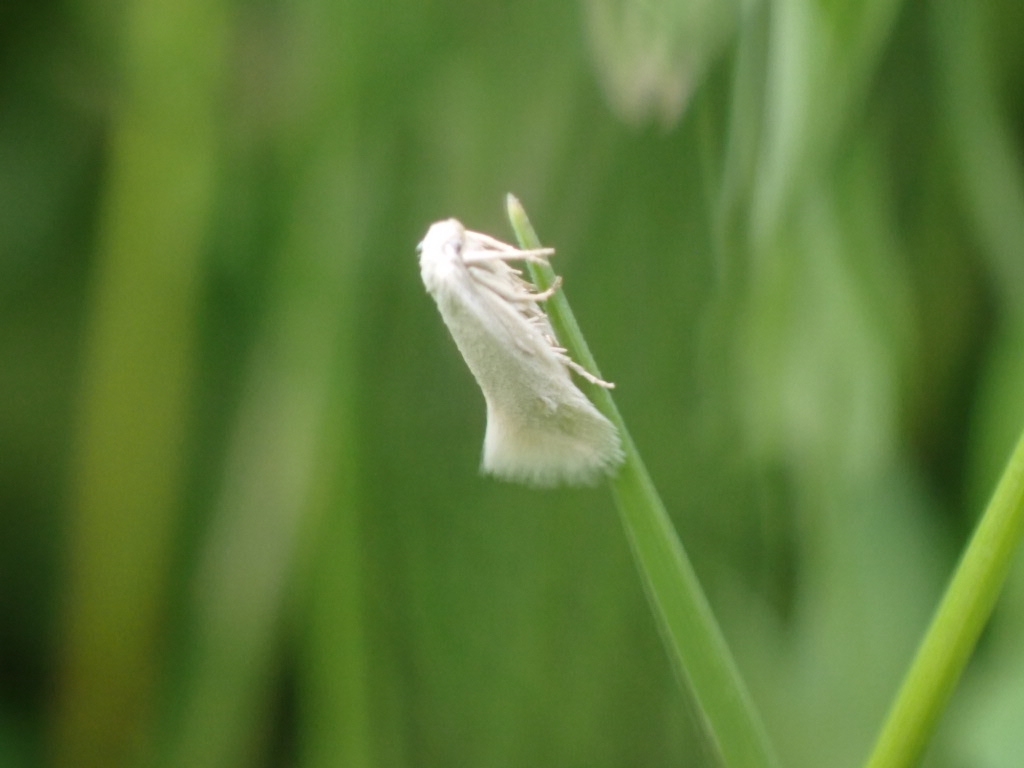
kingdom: Animalia
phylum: Arthropoda
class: Insecta
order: Lepidoptera
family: Elachistidae
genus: Elachista
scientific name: Elachista argentella
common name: Swan-feather dwarf
